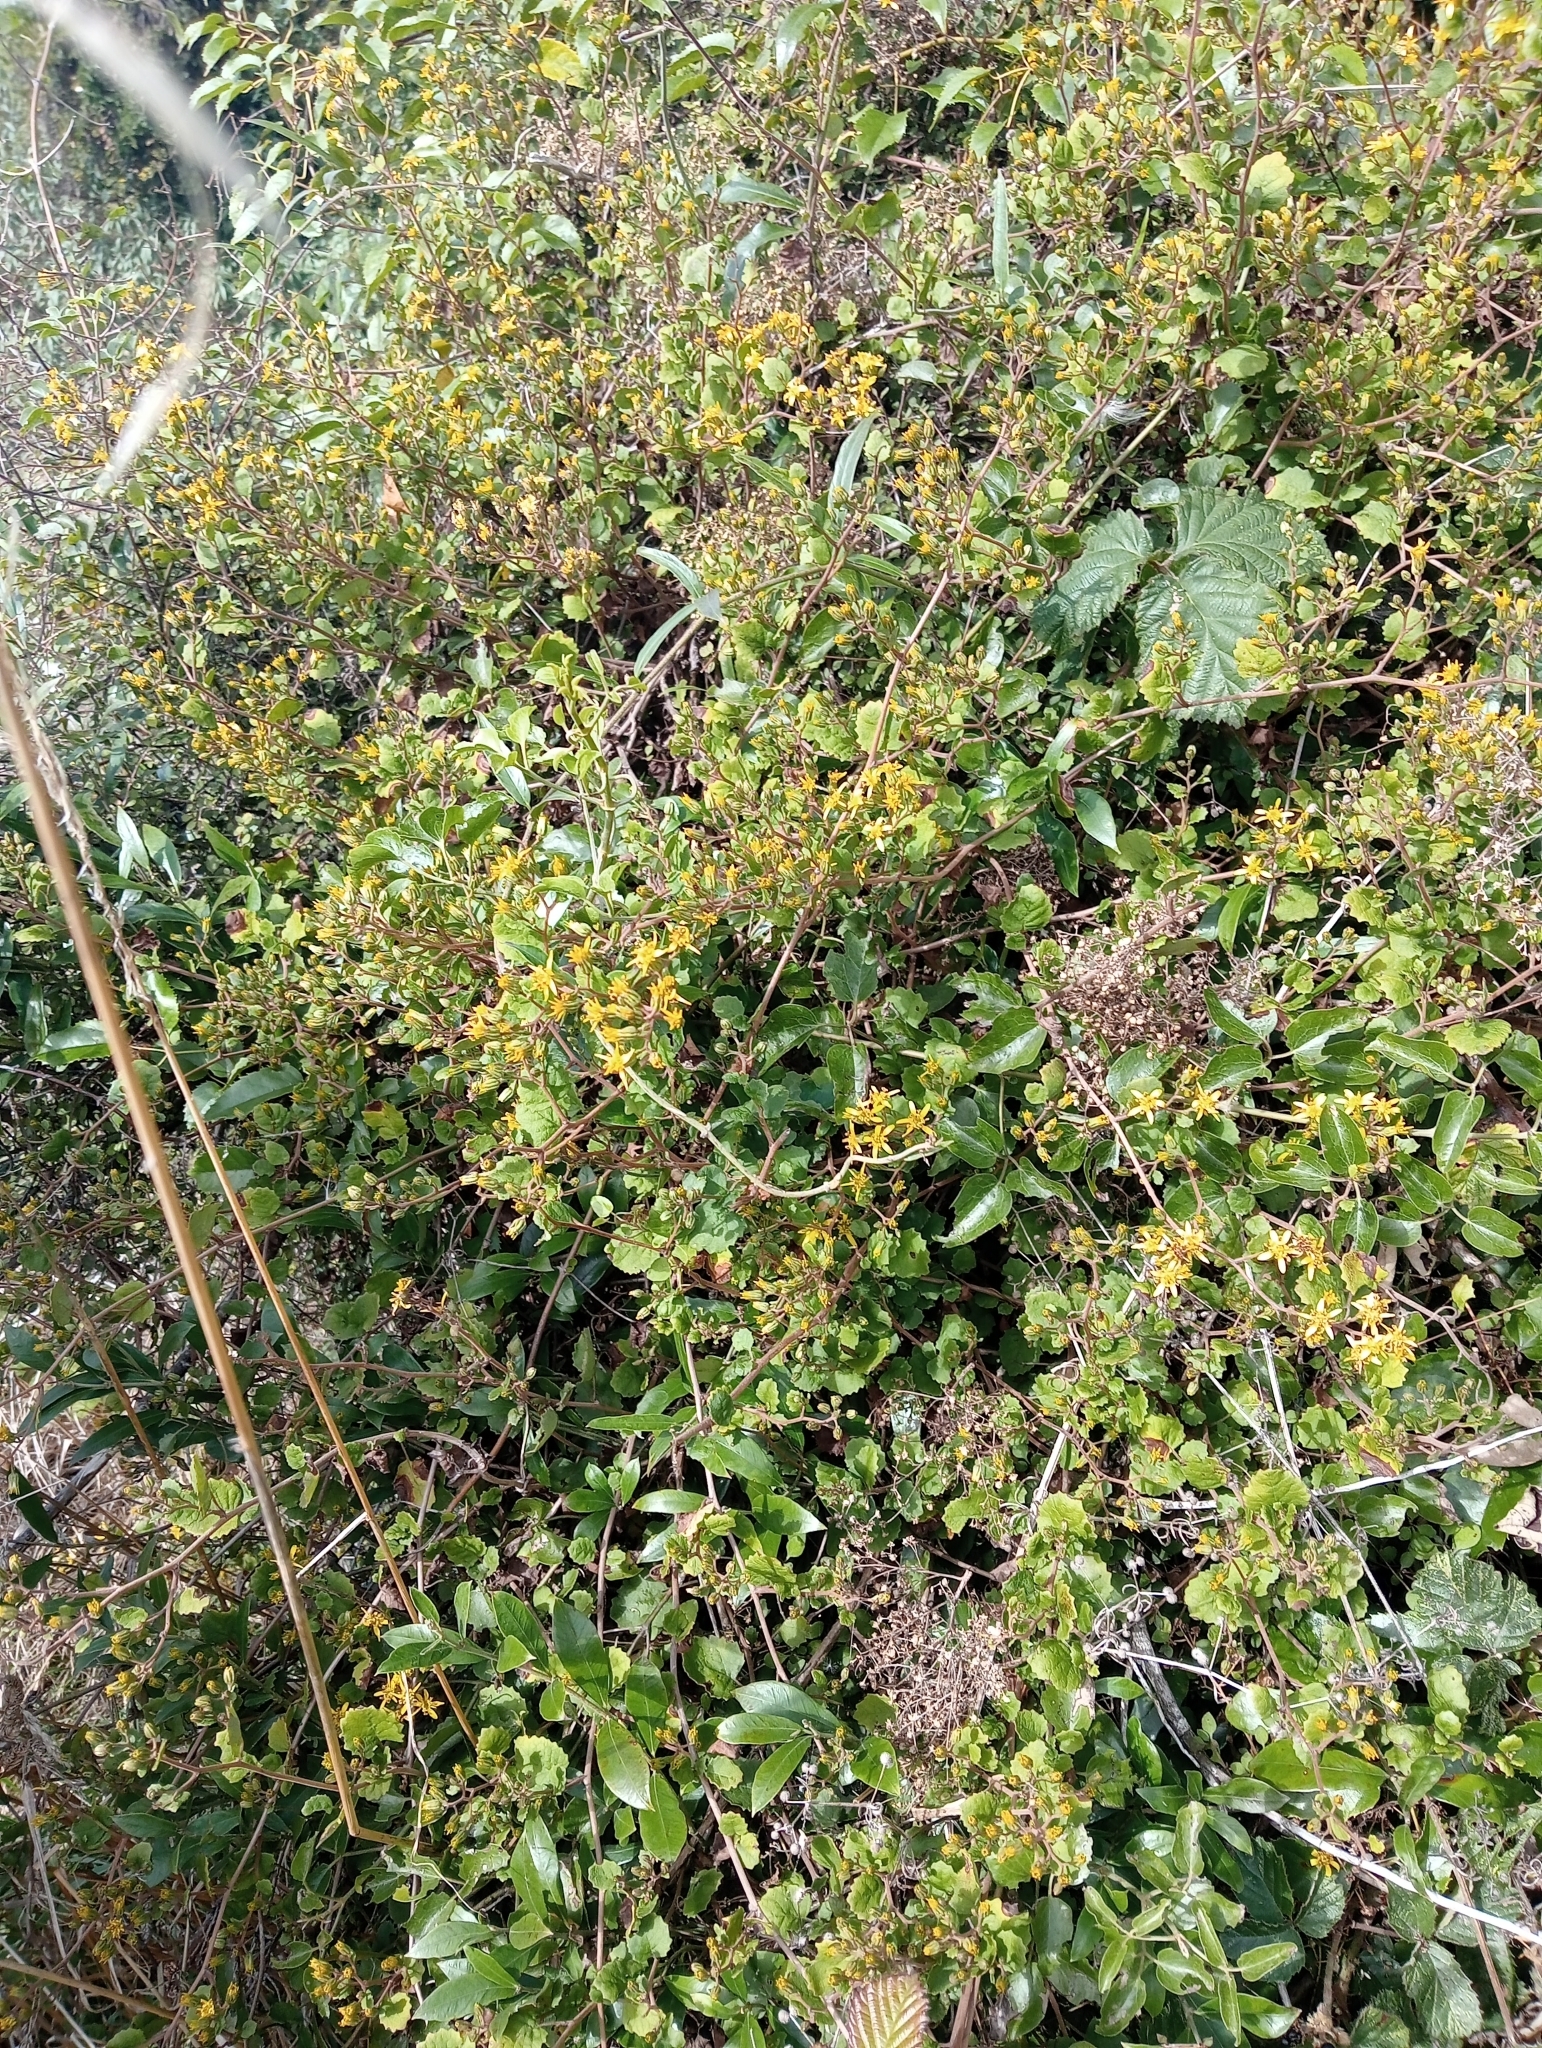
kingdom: Plantae
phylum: Tracheophyta
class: Magnoliopsida
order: Asterales
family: Asteraceae
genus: Brachyglottis
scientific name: Brachyglottis sciadophila
